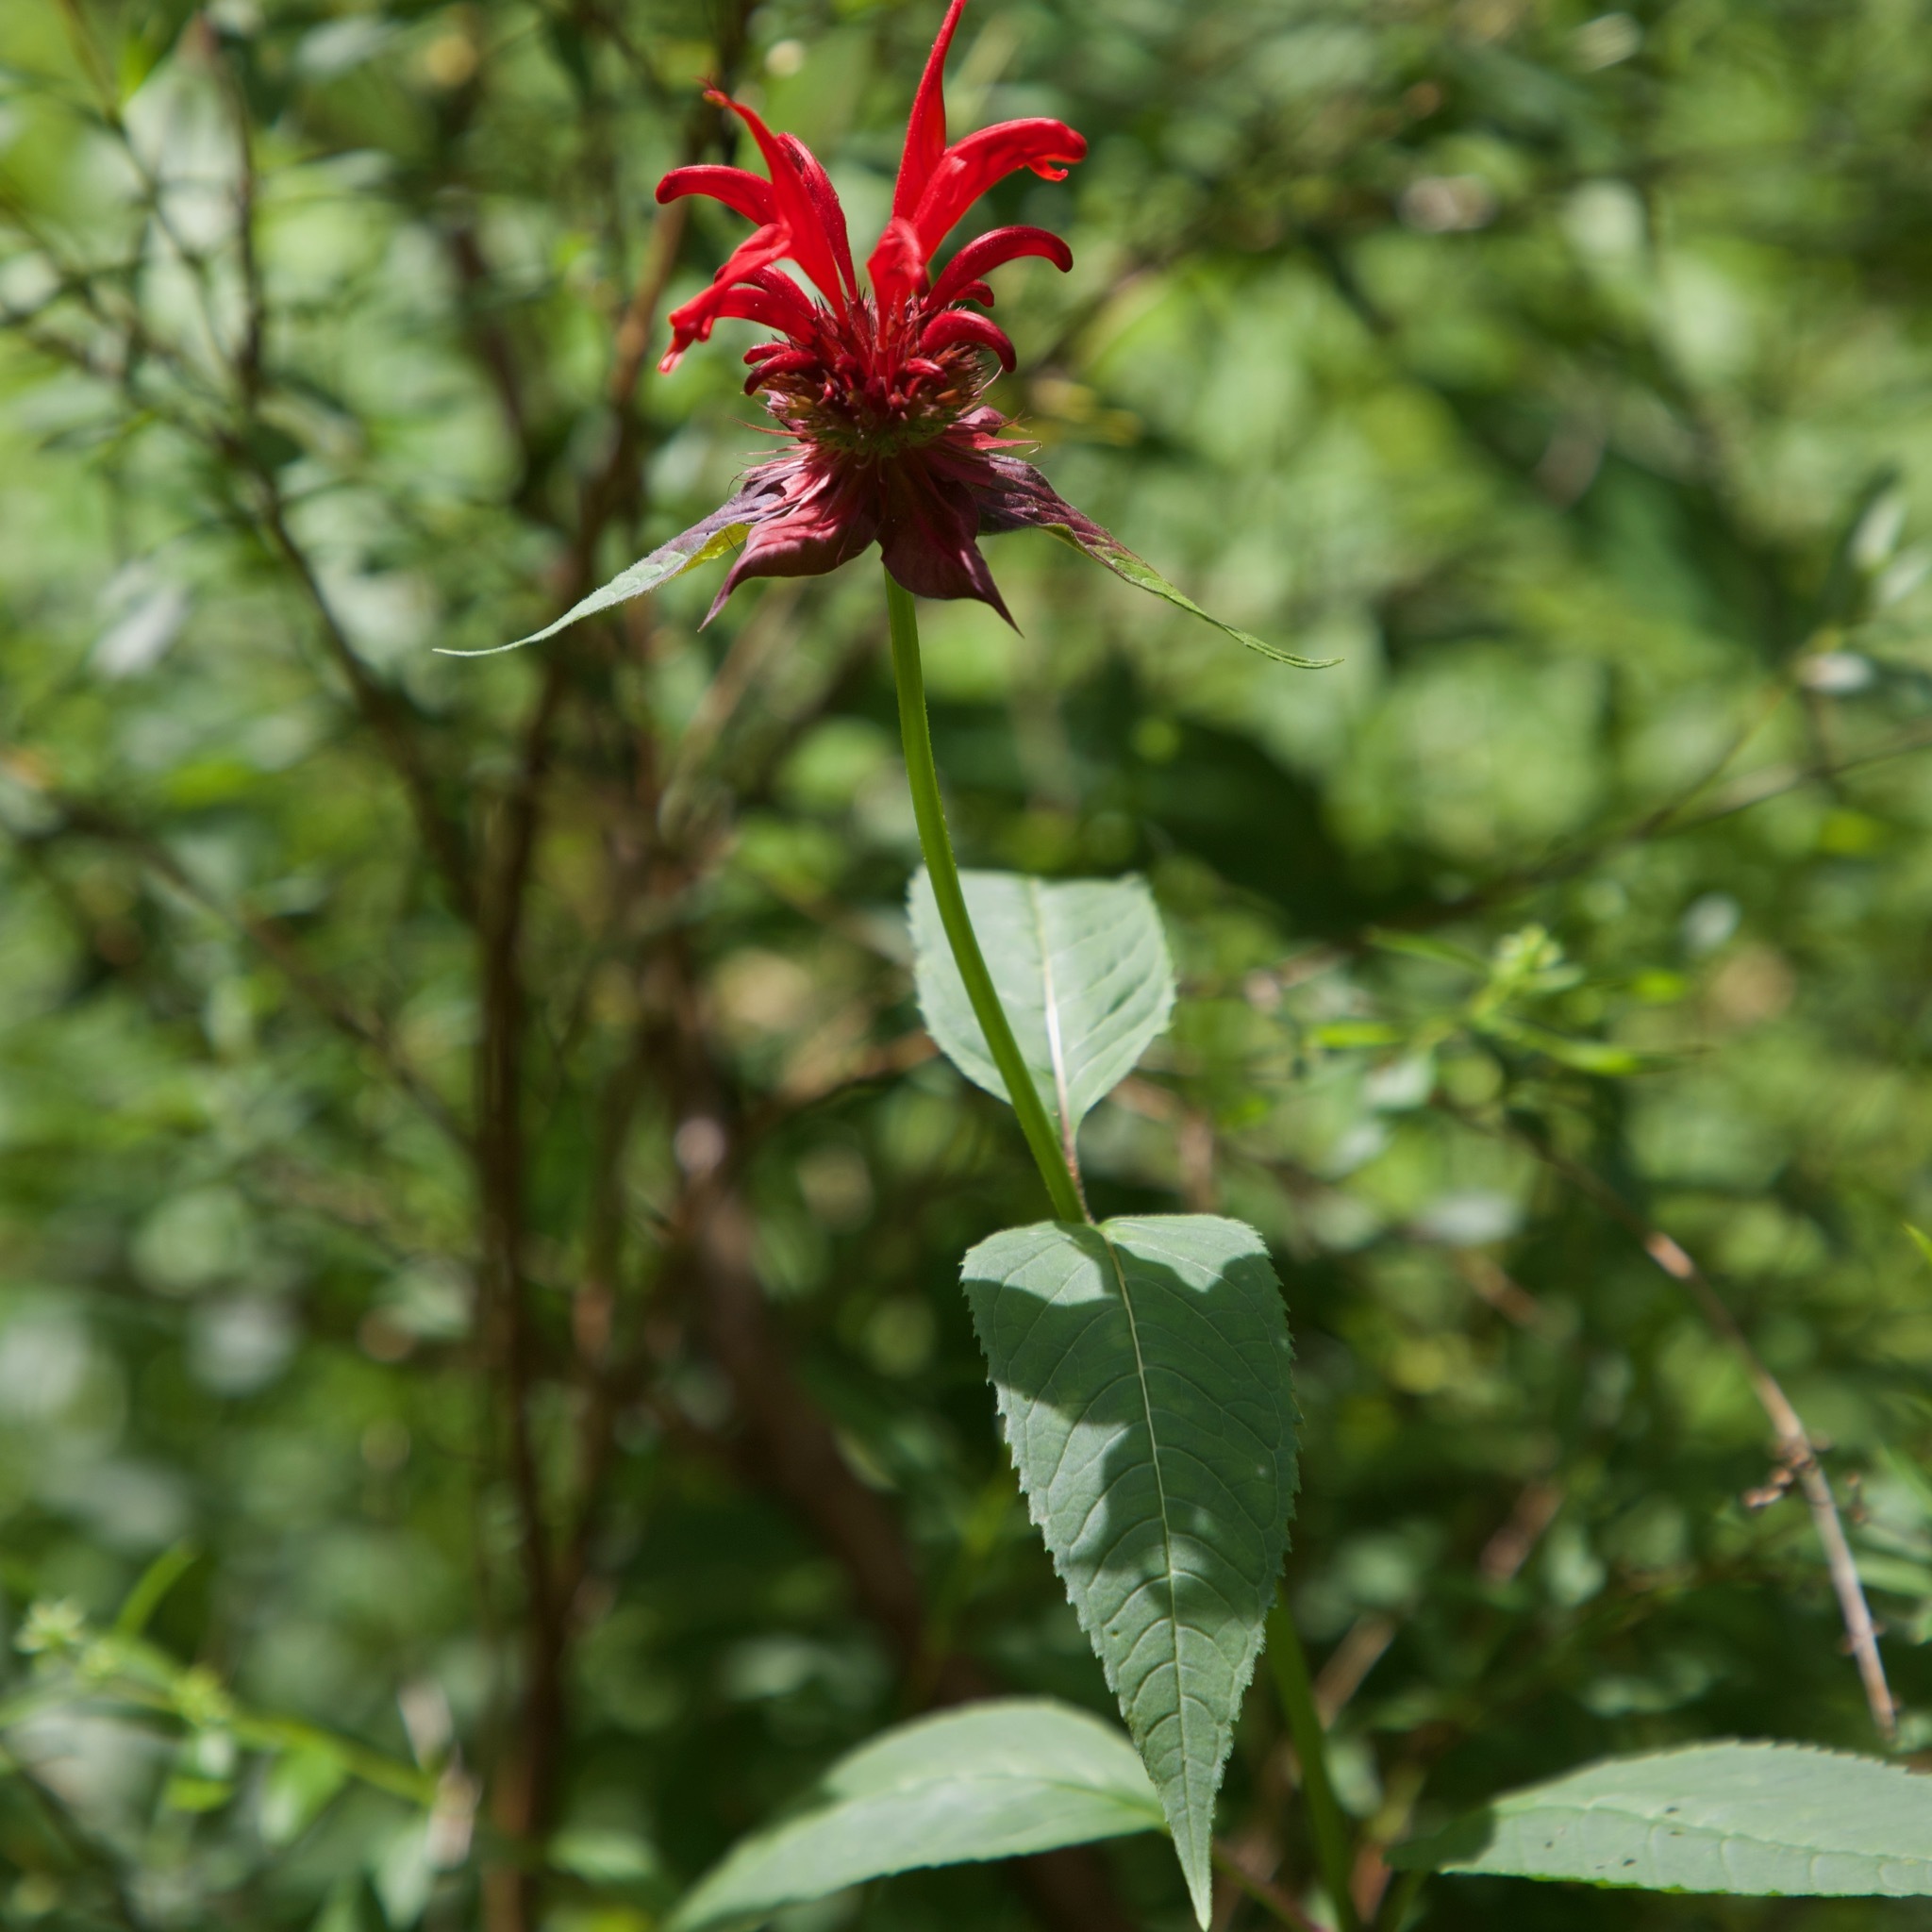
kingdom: Plantae
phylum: Tracheophyta
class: Magnoliopsida
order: Lamiales
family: Lamiaceae
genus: Monarda
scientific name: Monarda didyma
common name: Beebalm
